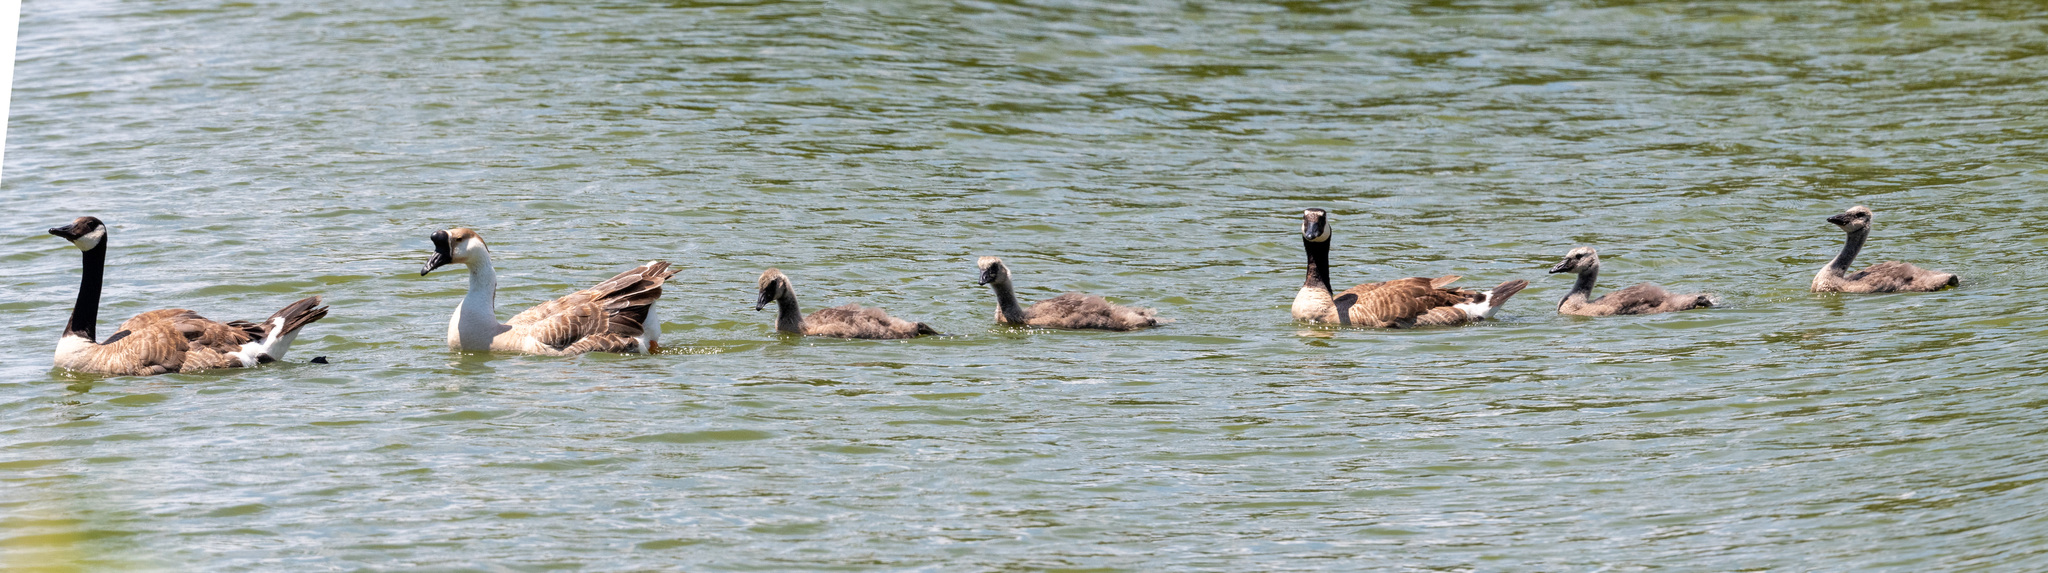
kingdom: Animalia
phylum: Chordata
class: Aves
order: Anseriformes
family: Anatidae
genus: Branta
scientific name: Branta canadensis
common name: Canada goose
